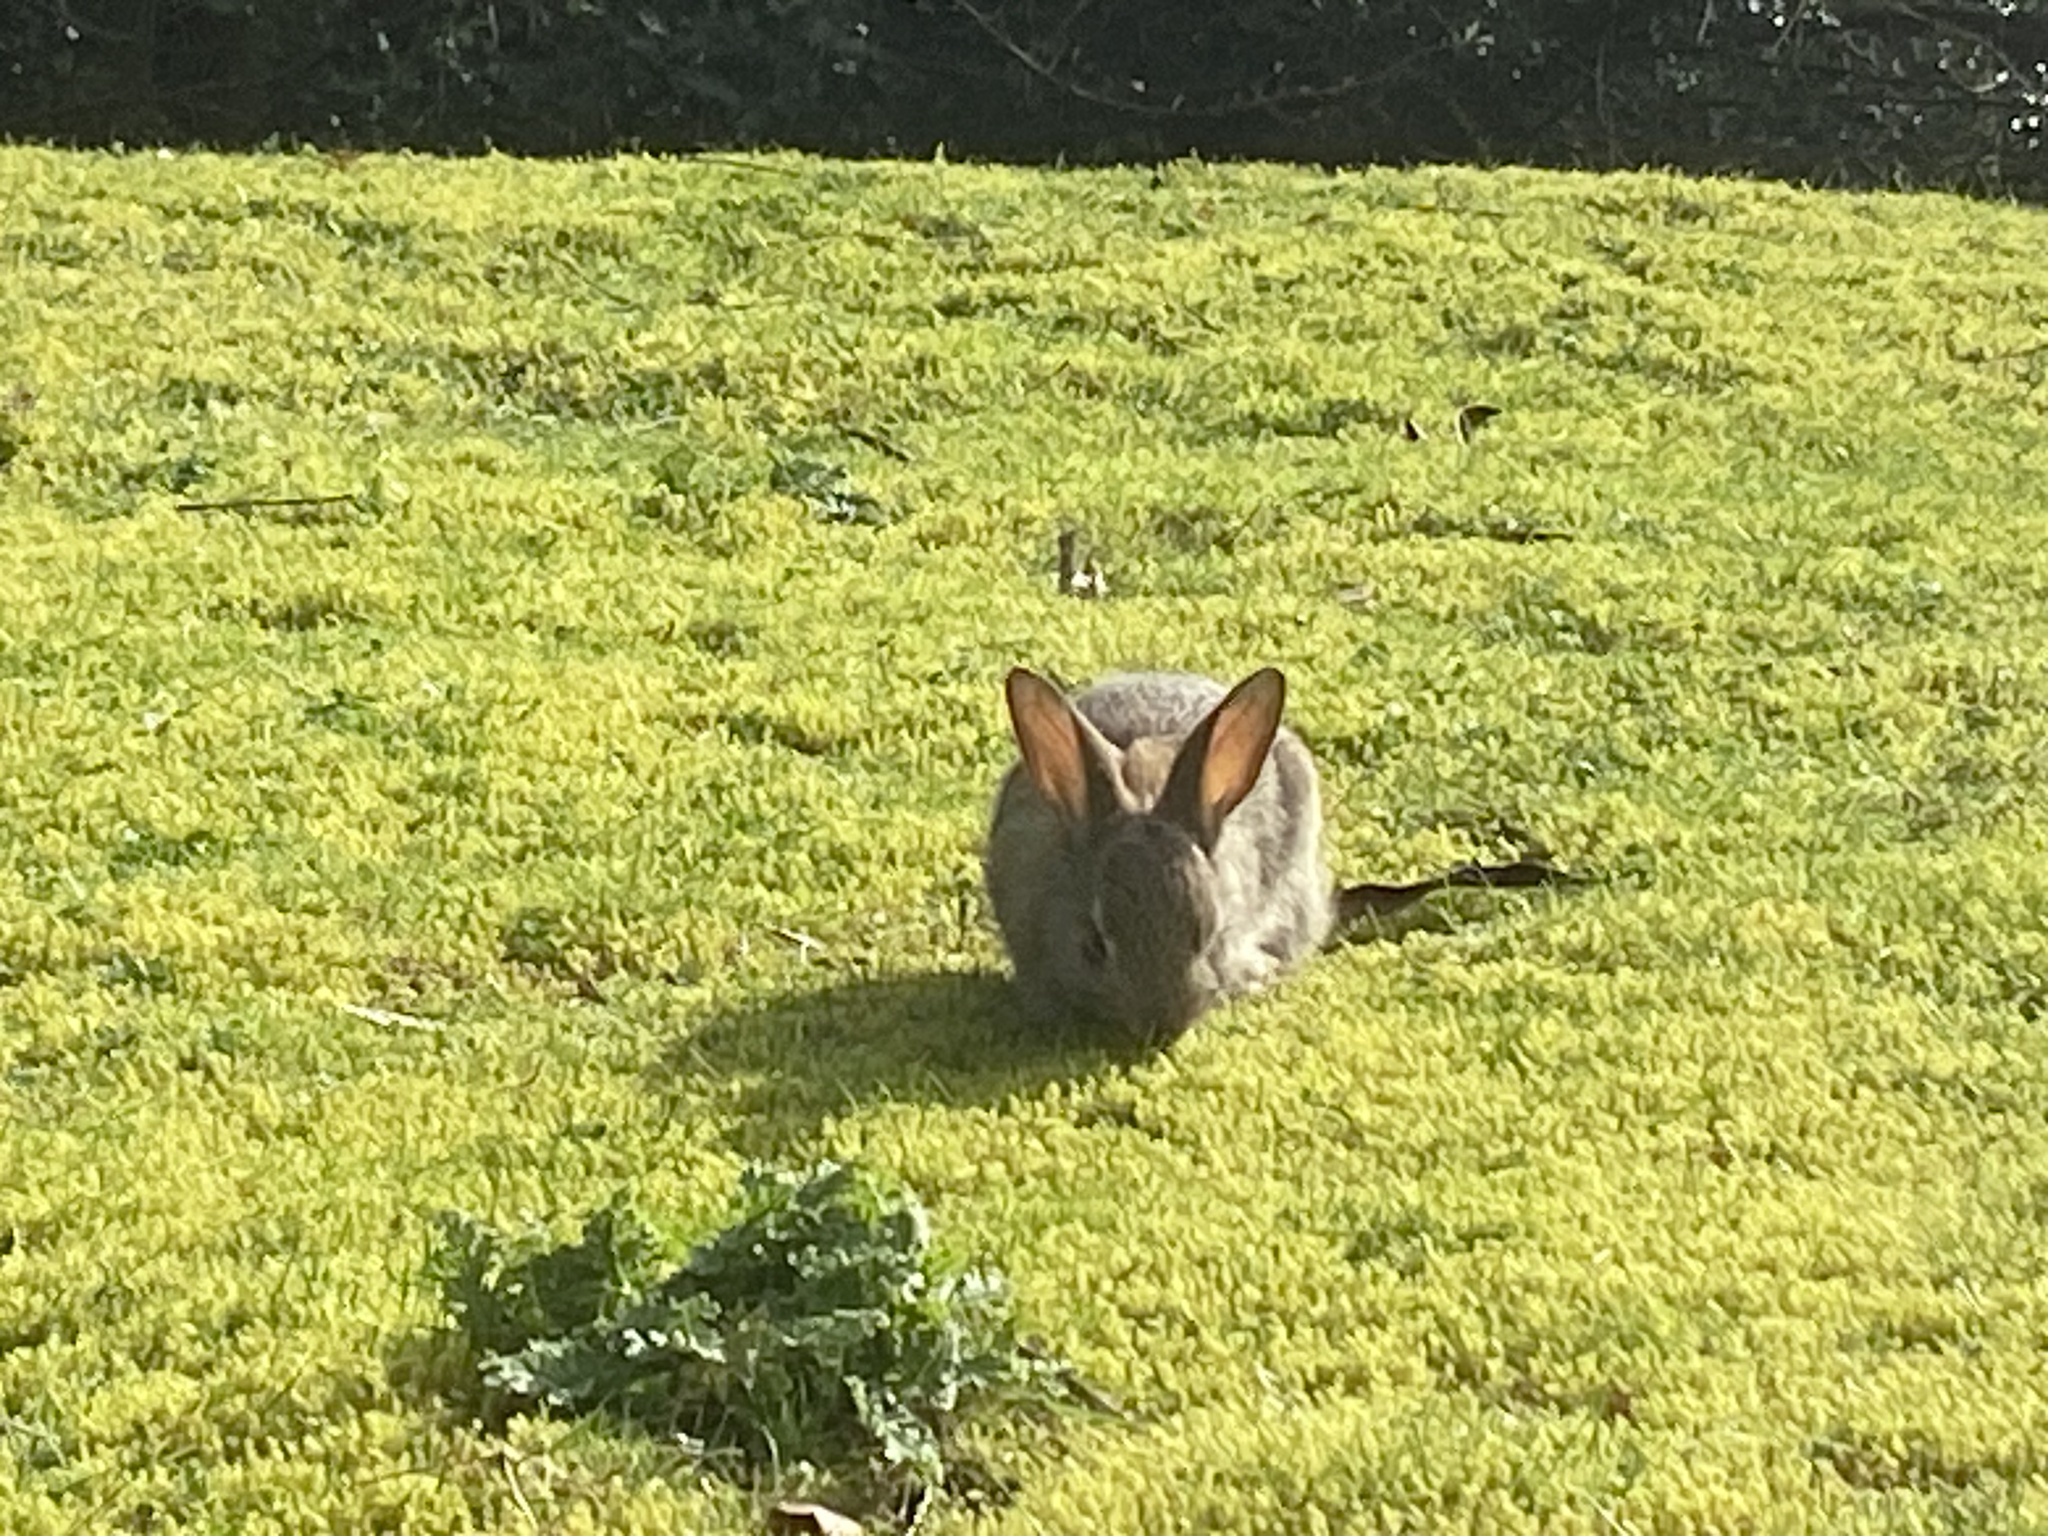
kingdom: Animalia
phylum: Chordata
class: Mammalia
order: Lagomorpha
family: Leporidae
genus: Oryctolagus
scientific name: Oryctolagus cuniculus
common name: European rabbit
